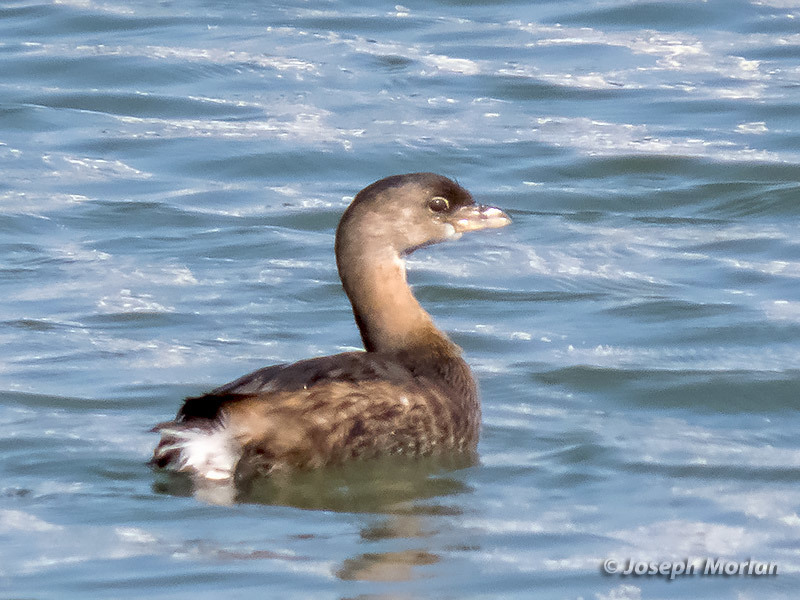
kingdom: Animalia
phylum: Chordata
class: Aves
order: Podicipediformes
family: Podicipedidae
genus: Podilymbus
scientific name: Podilymbus podiceps
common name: Pied-billed grebe
